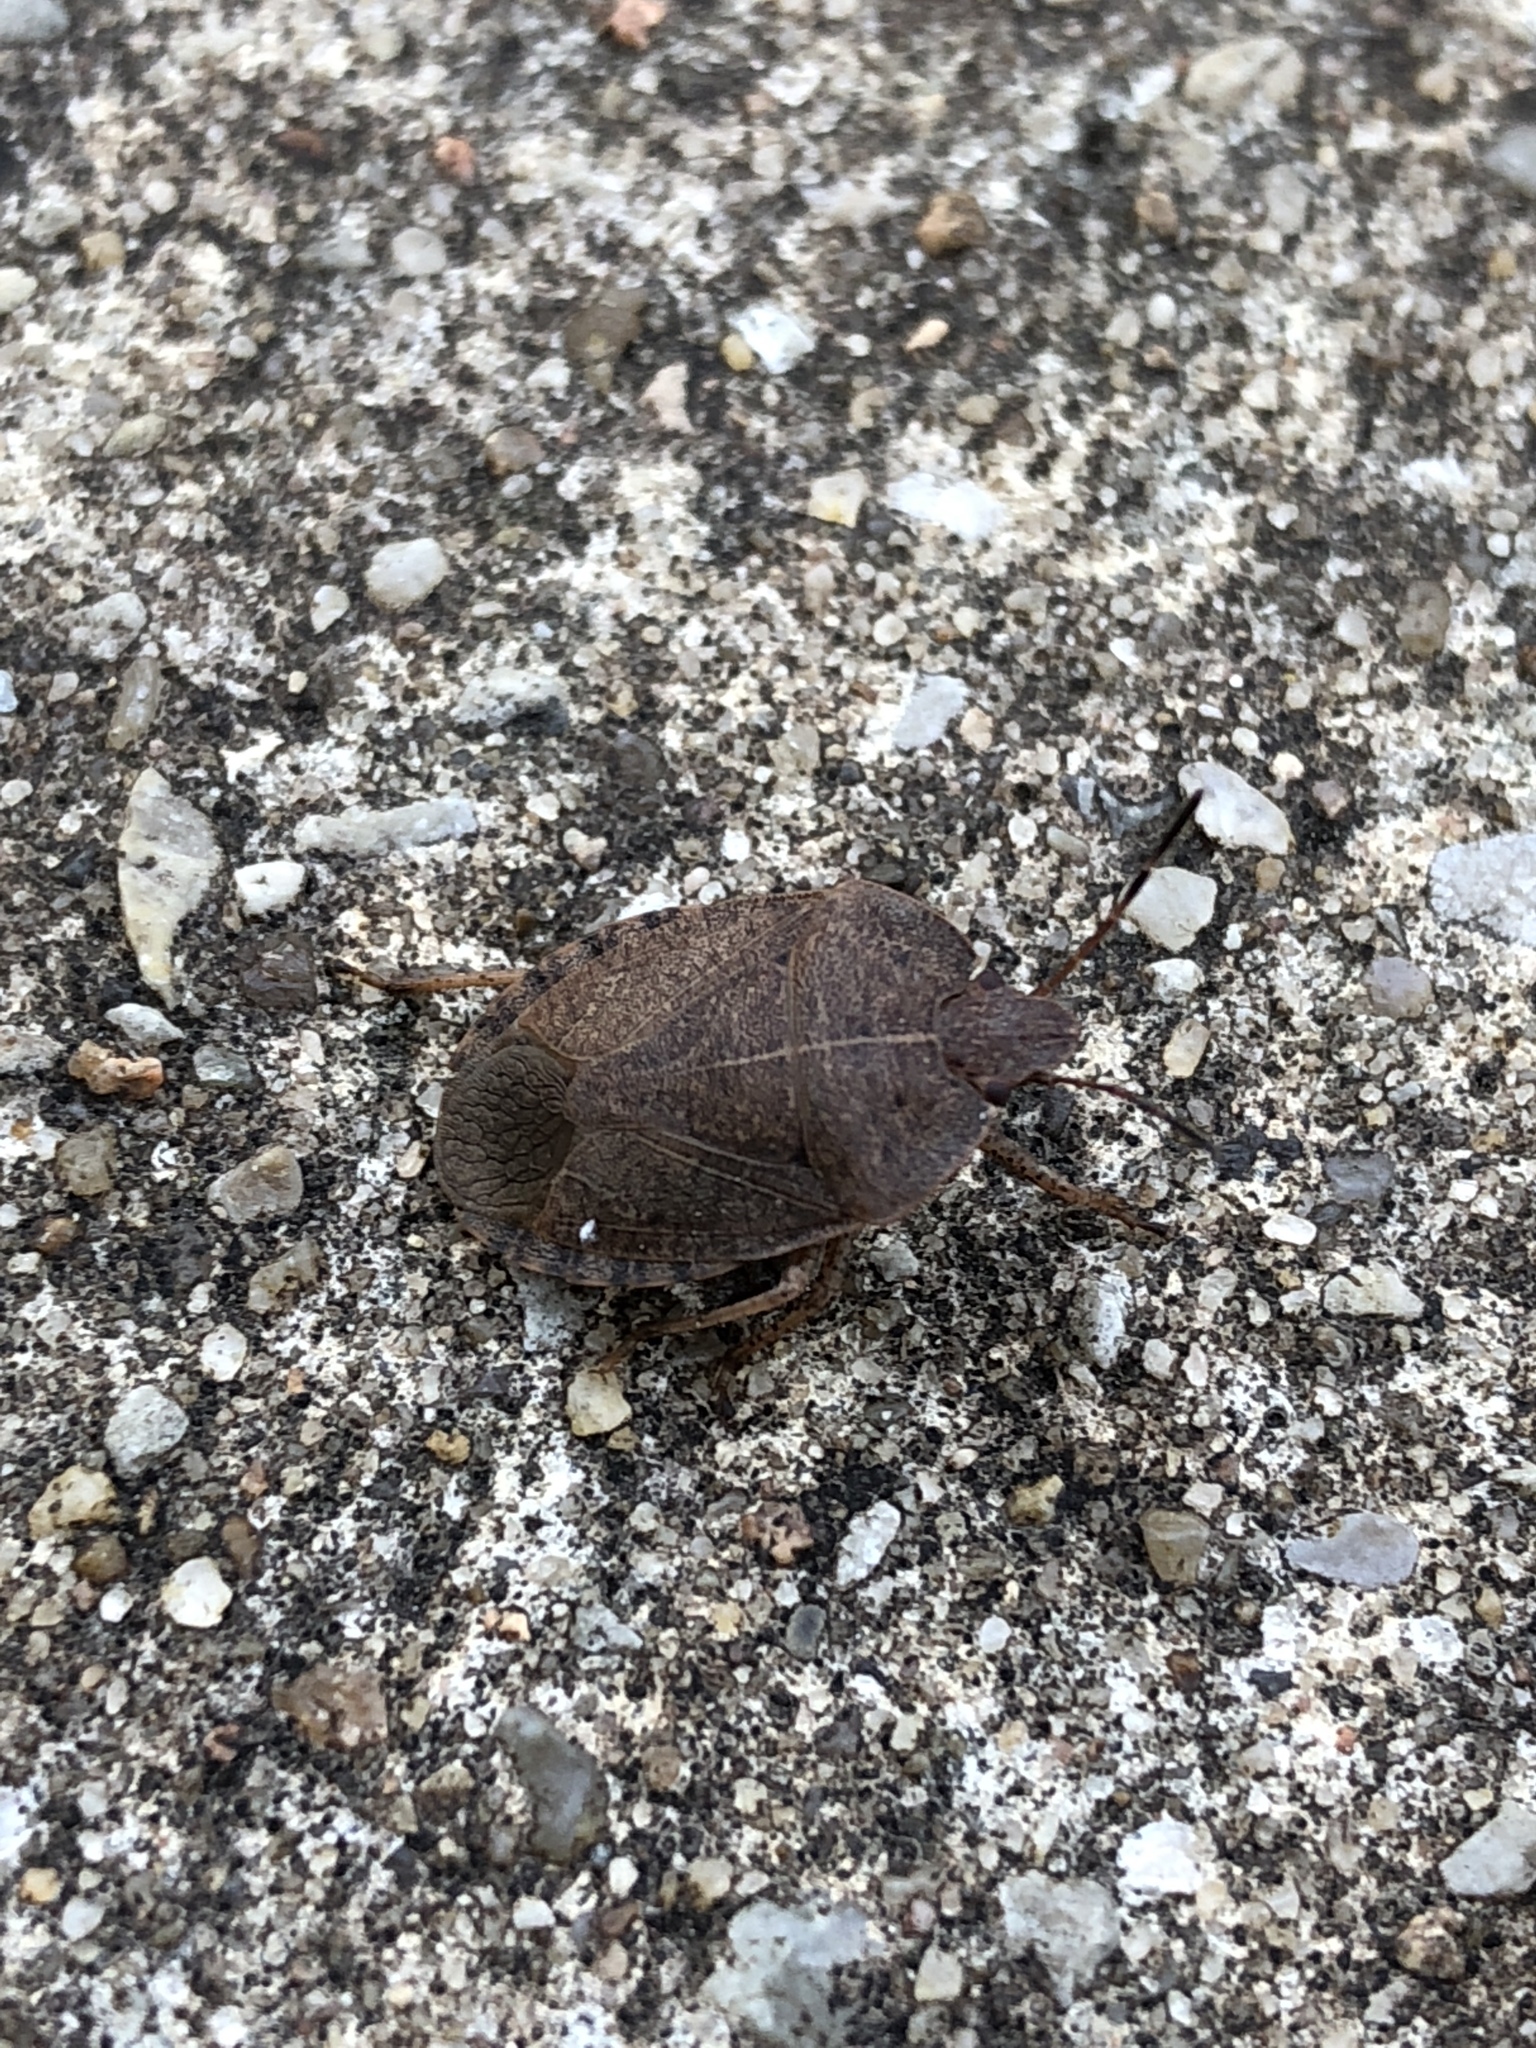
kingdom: Animalia
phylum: Arthropoda
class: Insecta
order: Hemiptera
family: Pentatomidae
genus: Menecles
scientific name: Menecles insertus
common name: Elf shoe stink bug
